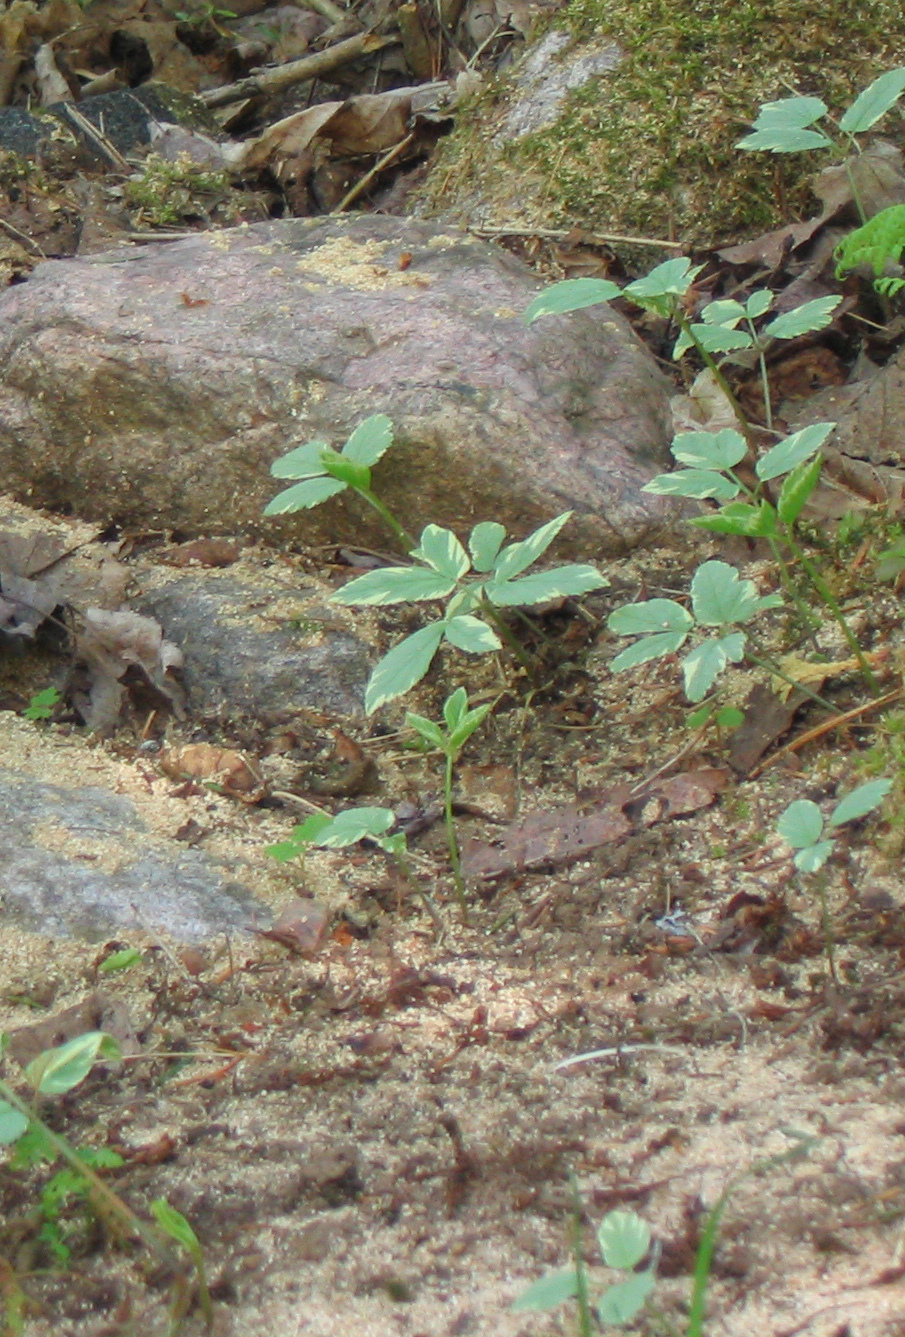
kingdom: Plantae
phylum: Tracheophyta
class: Magnoliopsida
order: Apiales
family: Apiaceae
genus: Aegopodium
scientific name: Aegopodium podagraria
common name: Ground-elder
